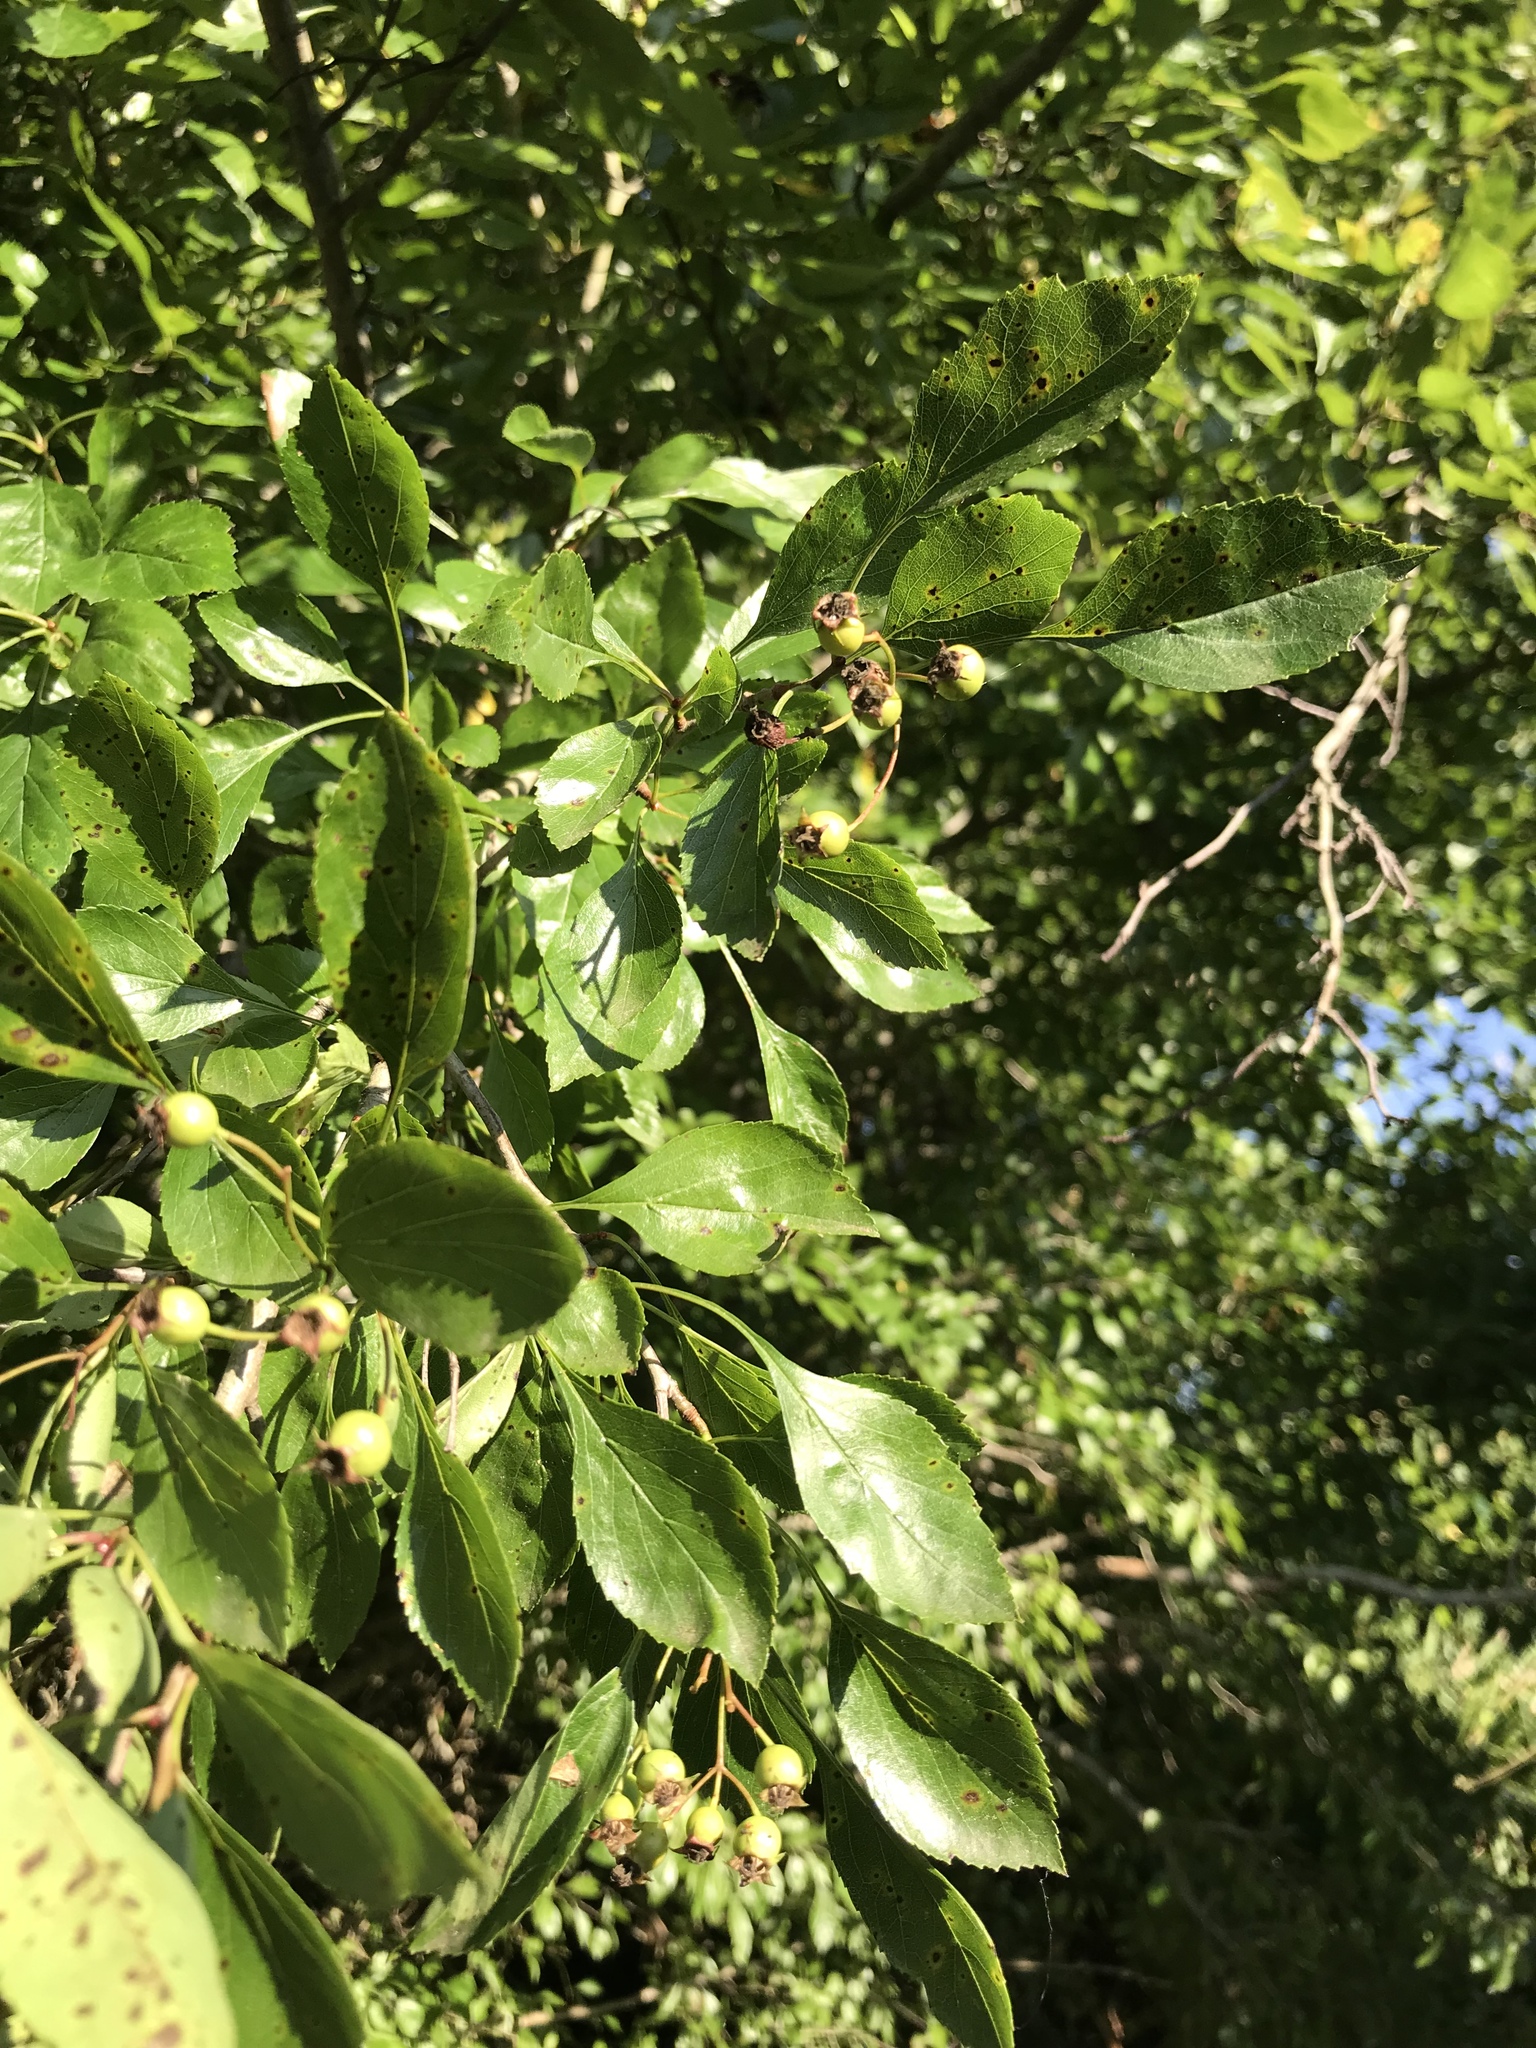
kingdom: Plantae
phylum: Tracheophyta
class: Magnoliopsida
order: Rosales
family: Rosaceae
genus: Crataegus
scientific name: Crataegus viridis
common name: Southernthorn
